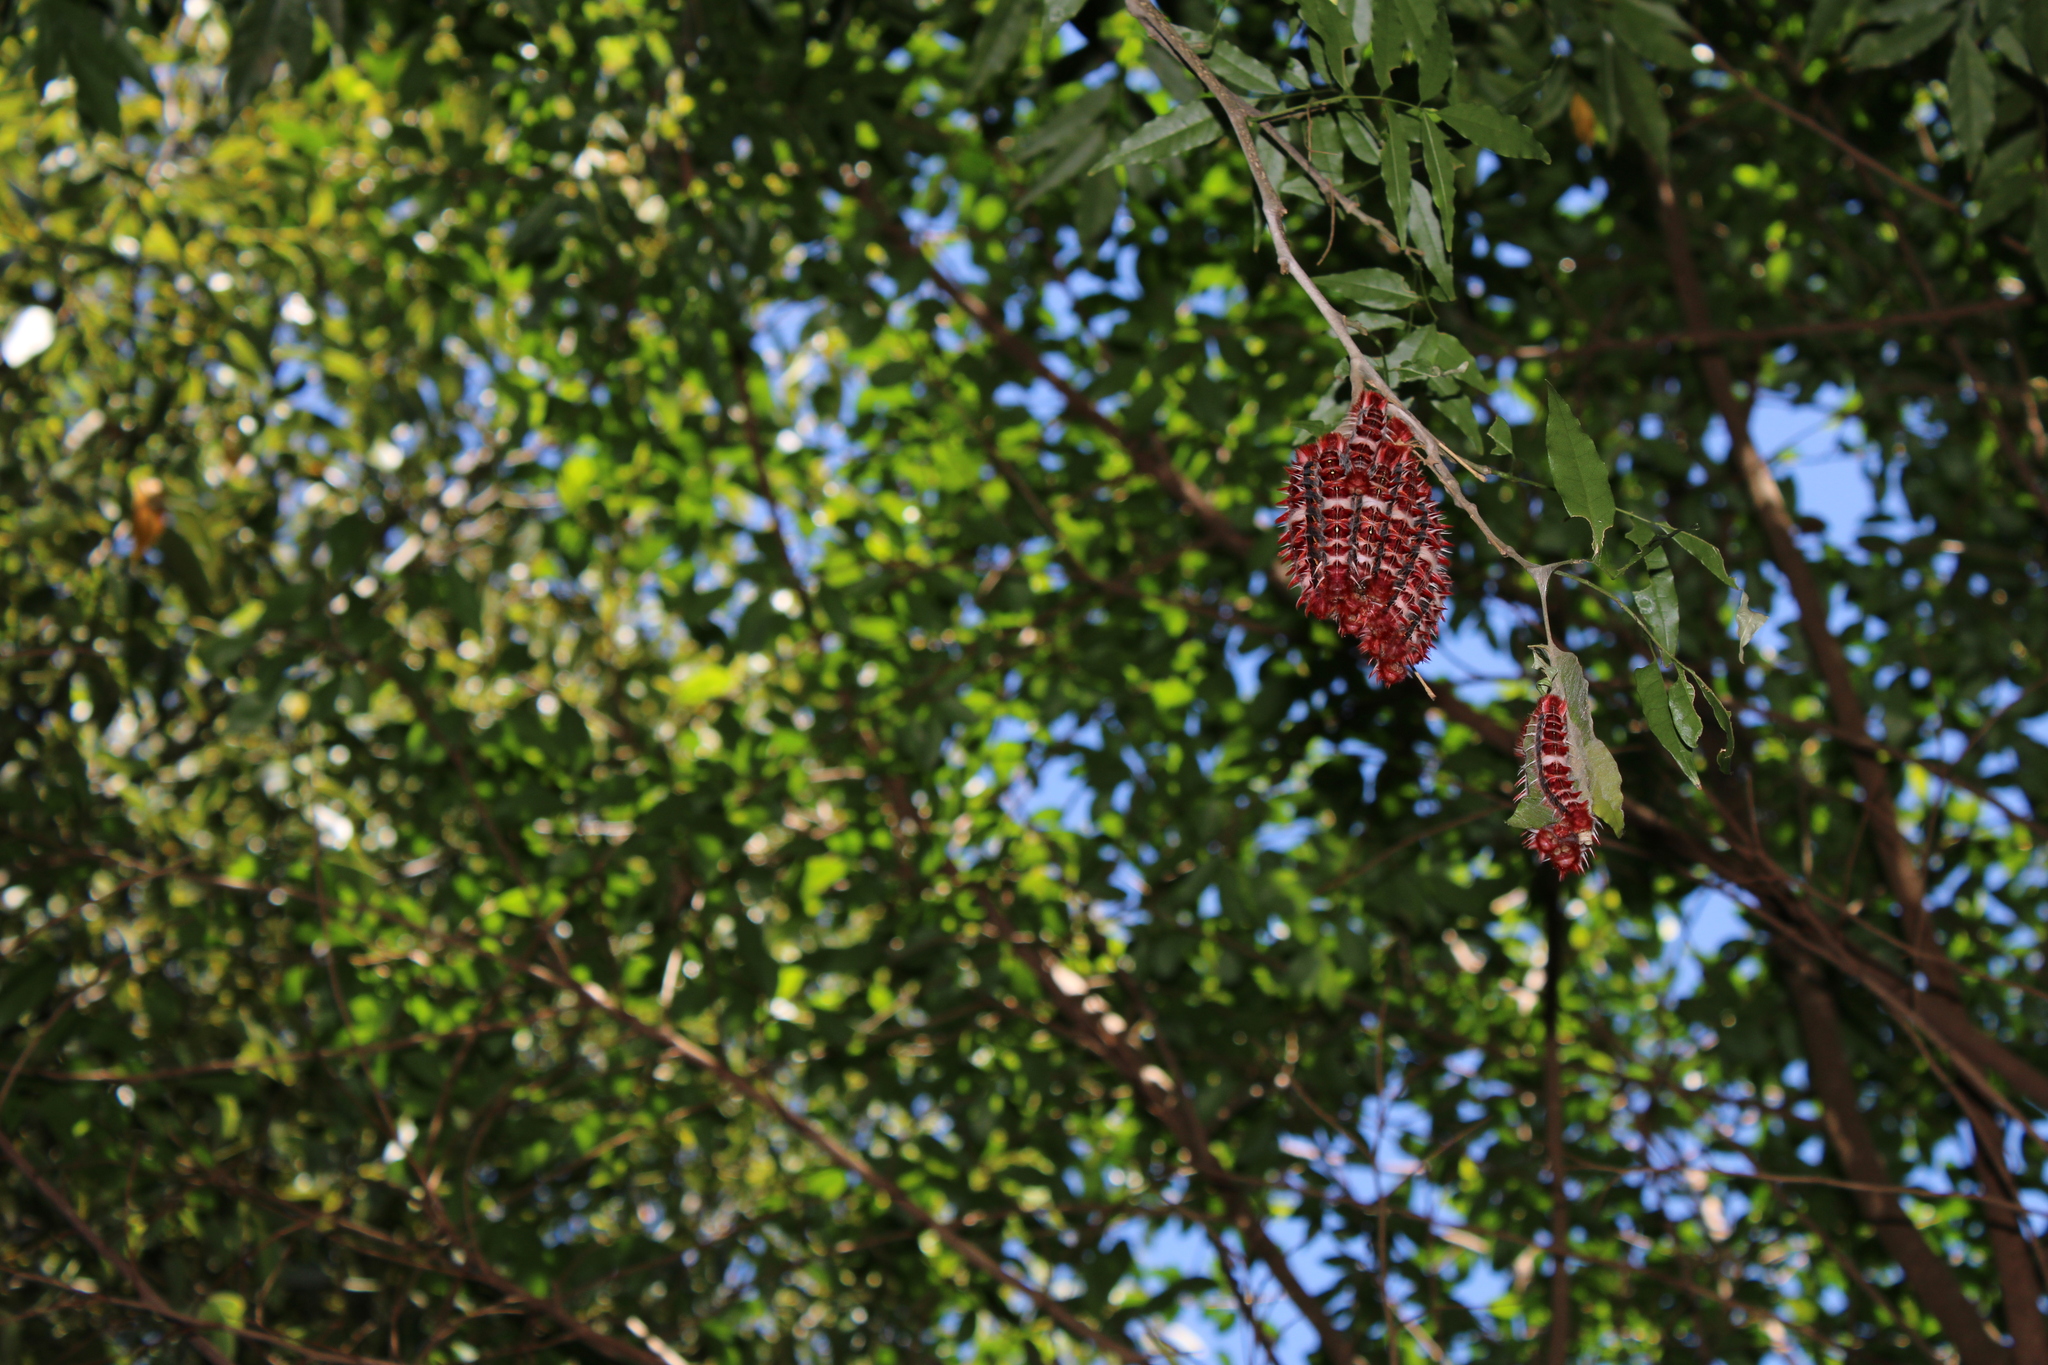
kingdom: Animalia
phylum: Arthropoda
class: Insecta
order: Lepidoptera
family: Nymphalidae
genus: Morpho
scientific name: Morpho epistrophus
